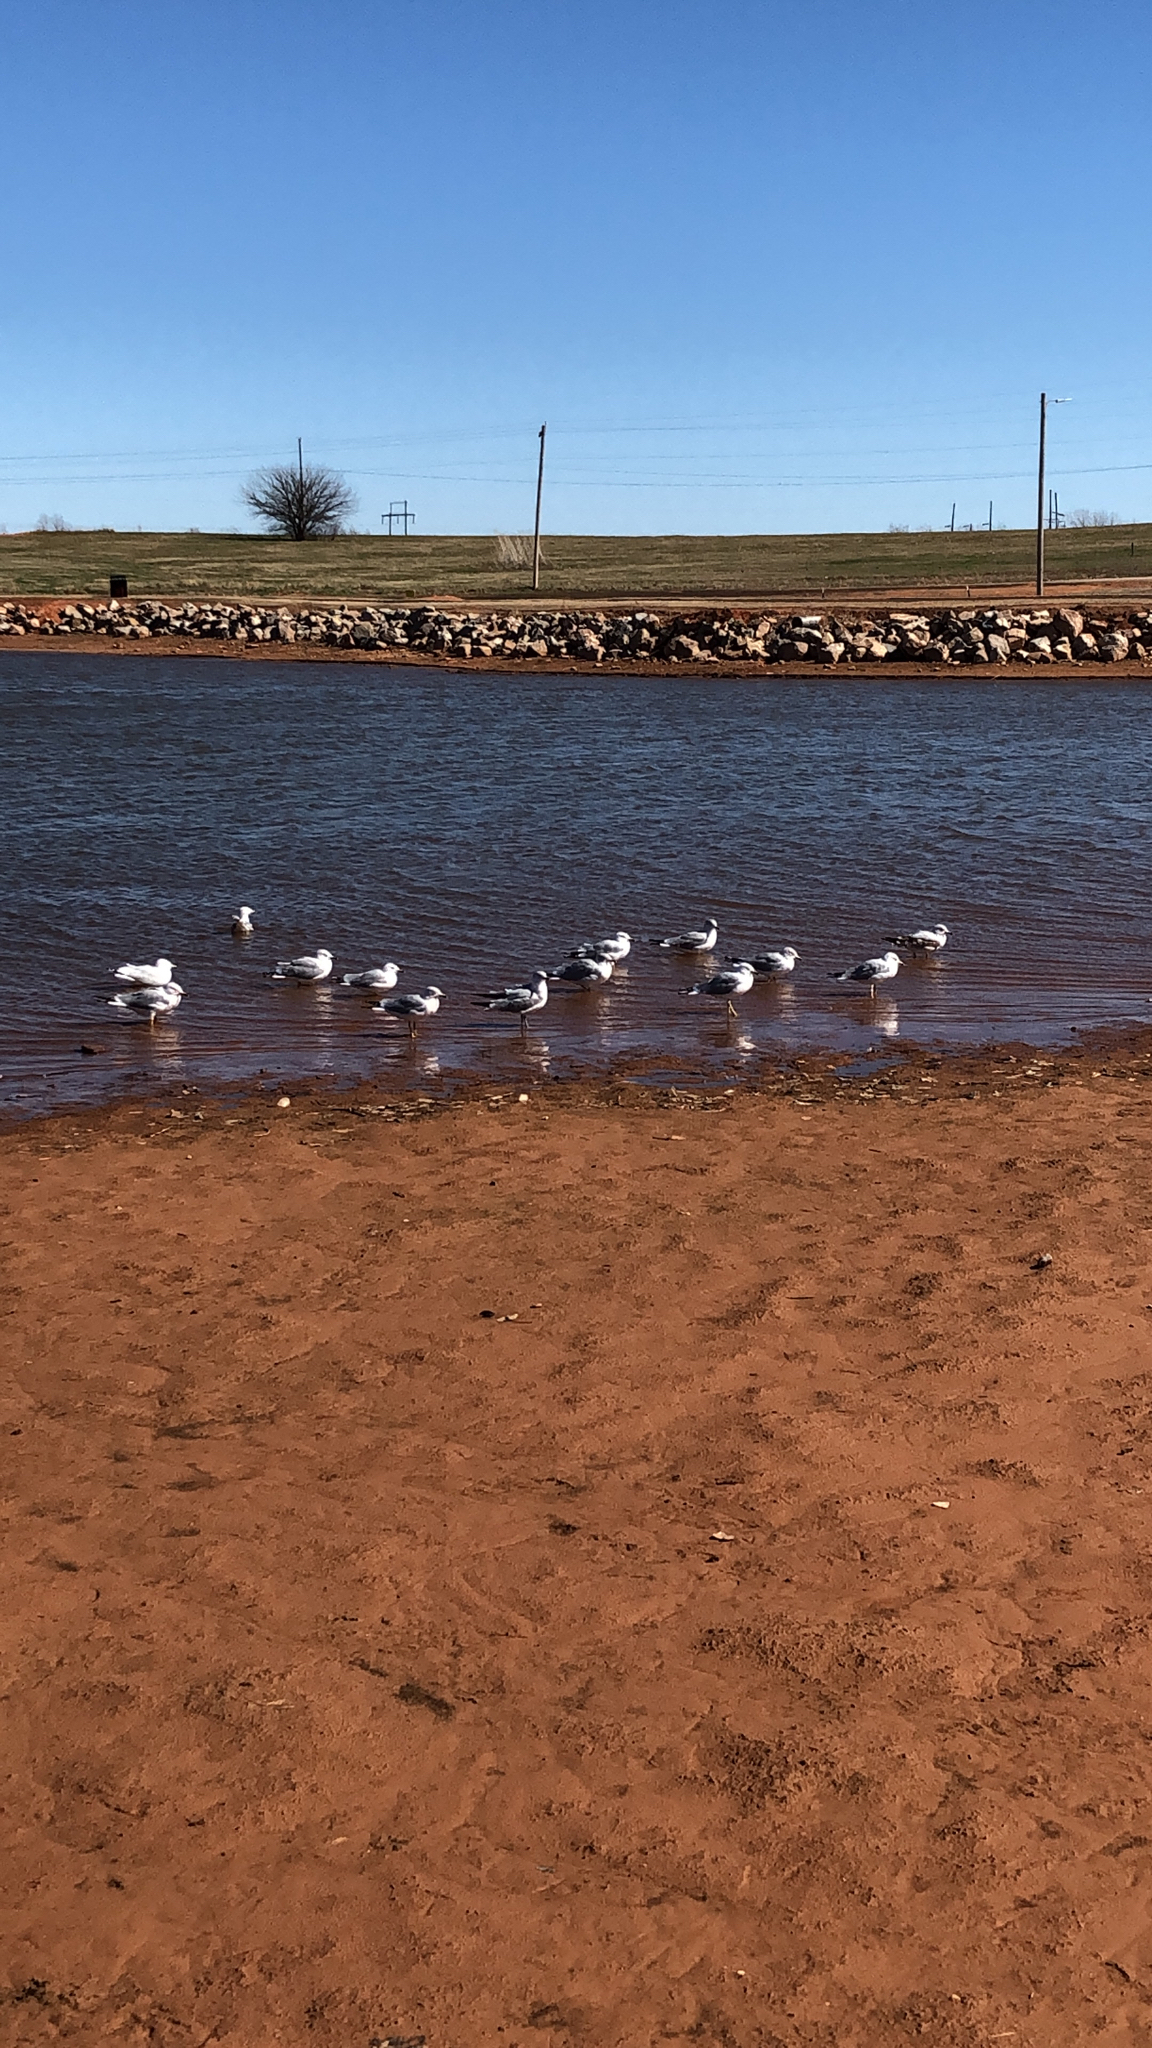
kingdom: Animalia
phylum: Chordata
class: Aves
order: Charadriiformes
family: Laridae
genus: Larus
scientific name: Larus delawarensis
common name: Ring-billed gull
